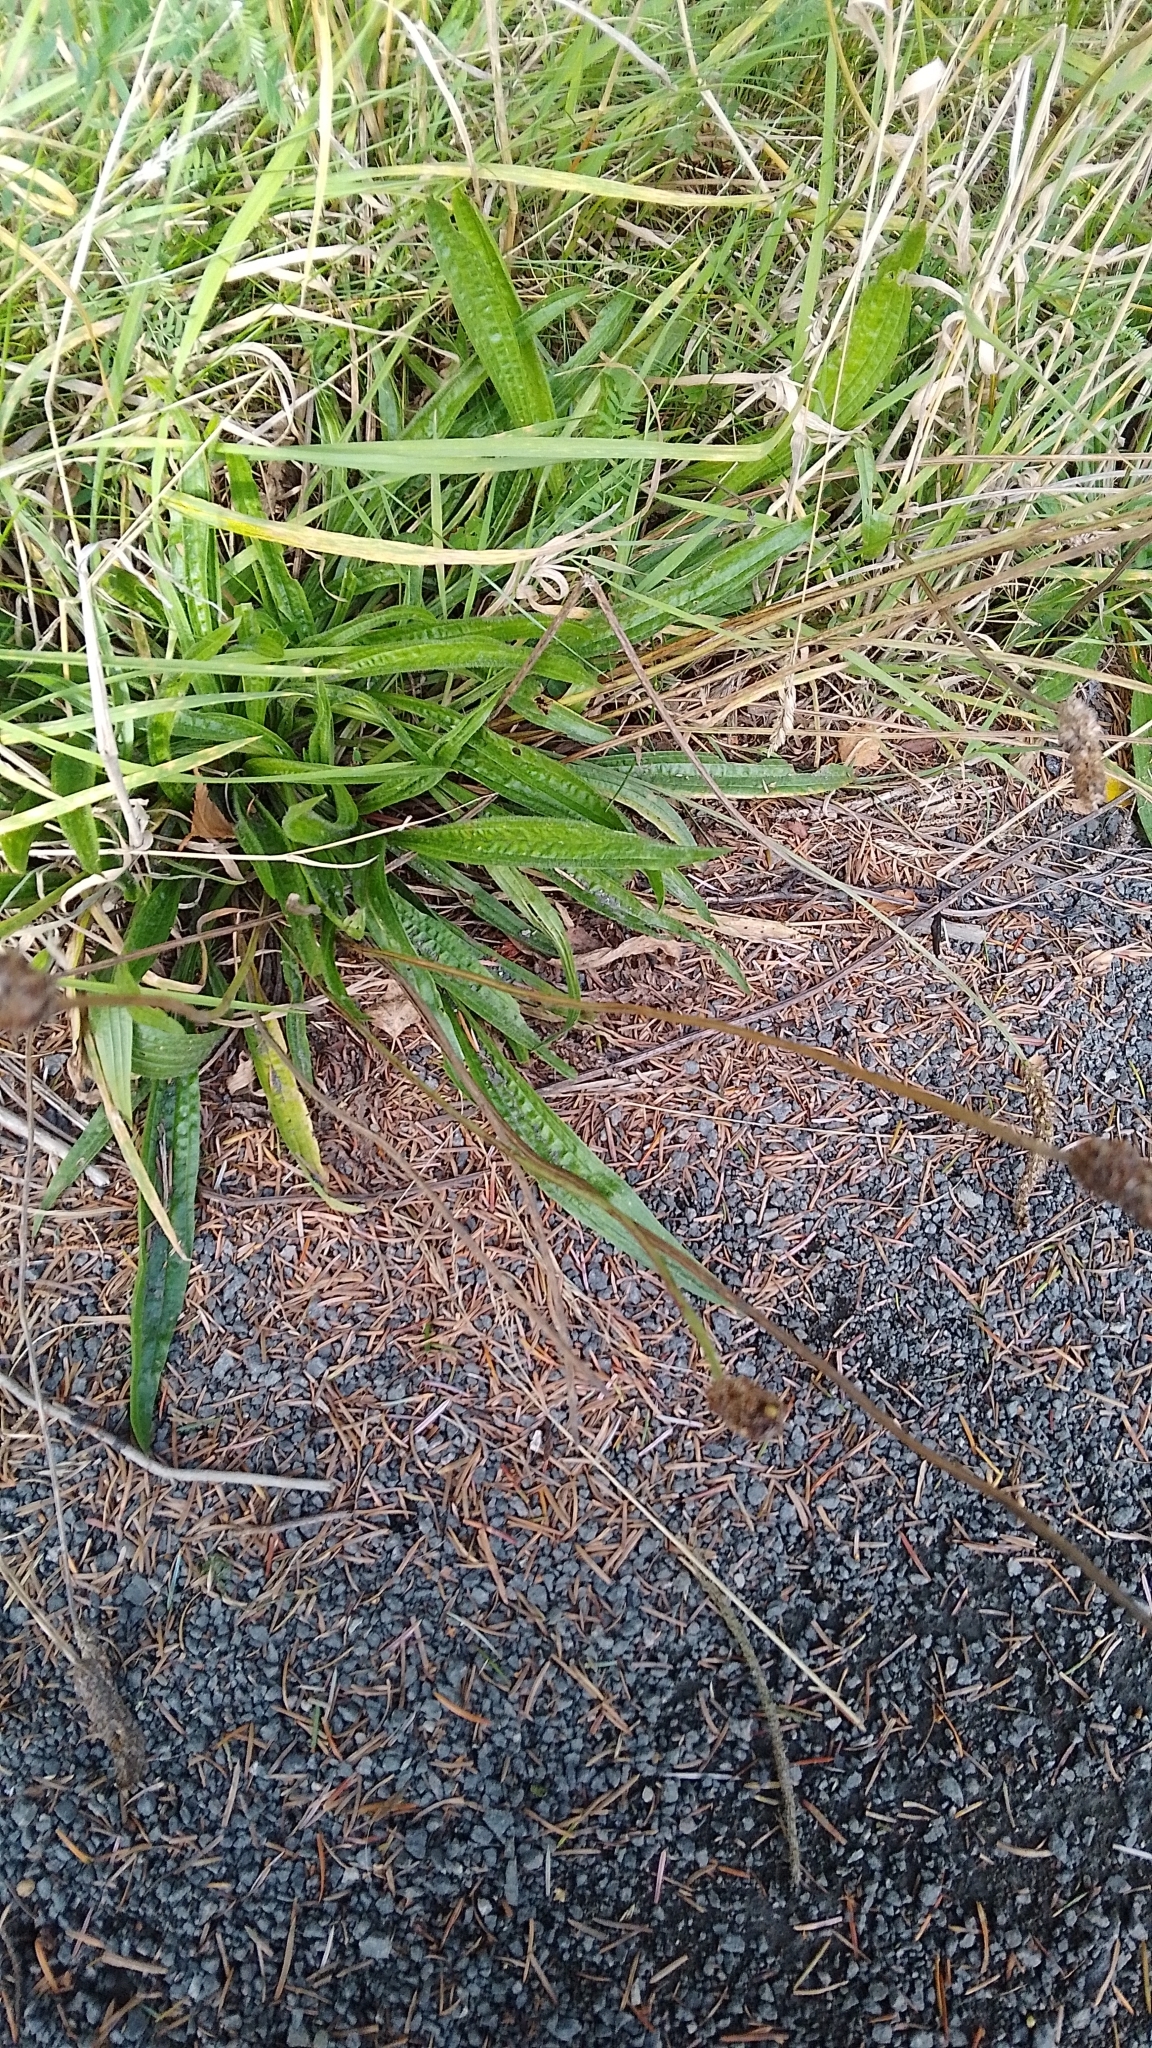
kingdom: Plantae
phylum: Tracheophyta
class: Magnoliopsida
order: Lamiales
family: Plantaginaceae
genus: Plantago
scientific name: Plantago lanceolata
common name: Ribwort plantain
